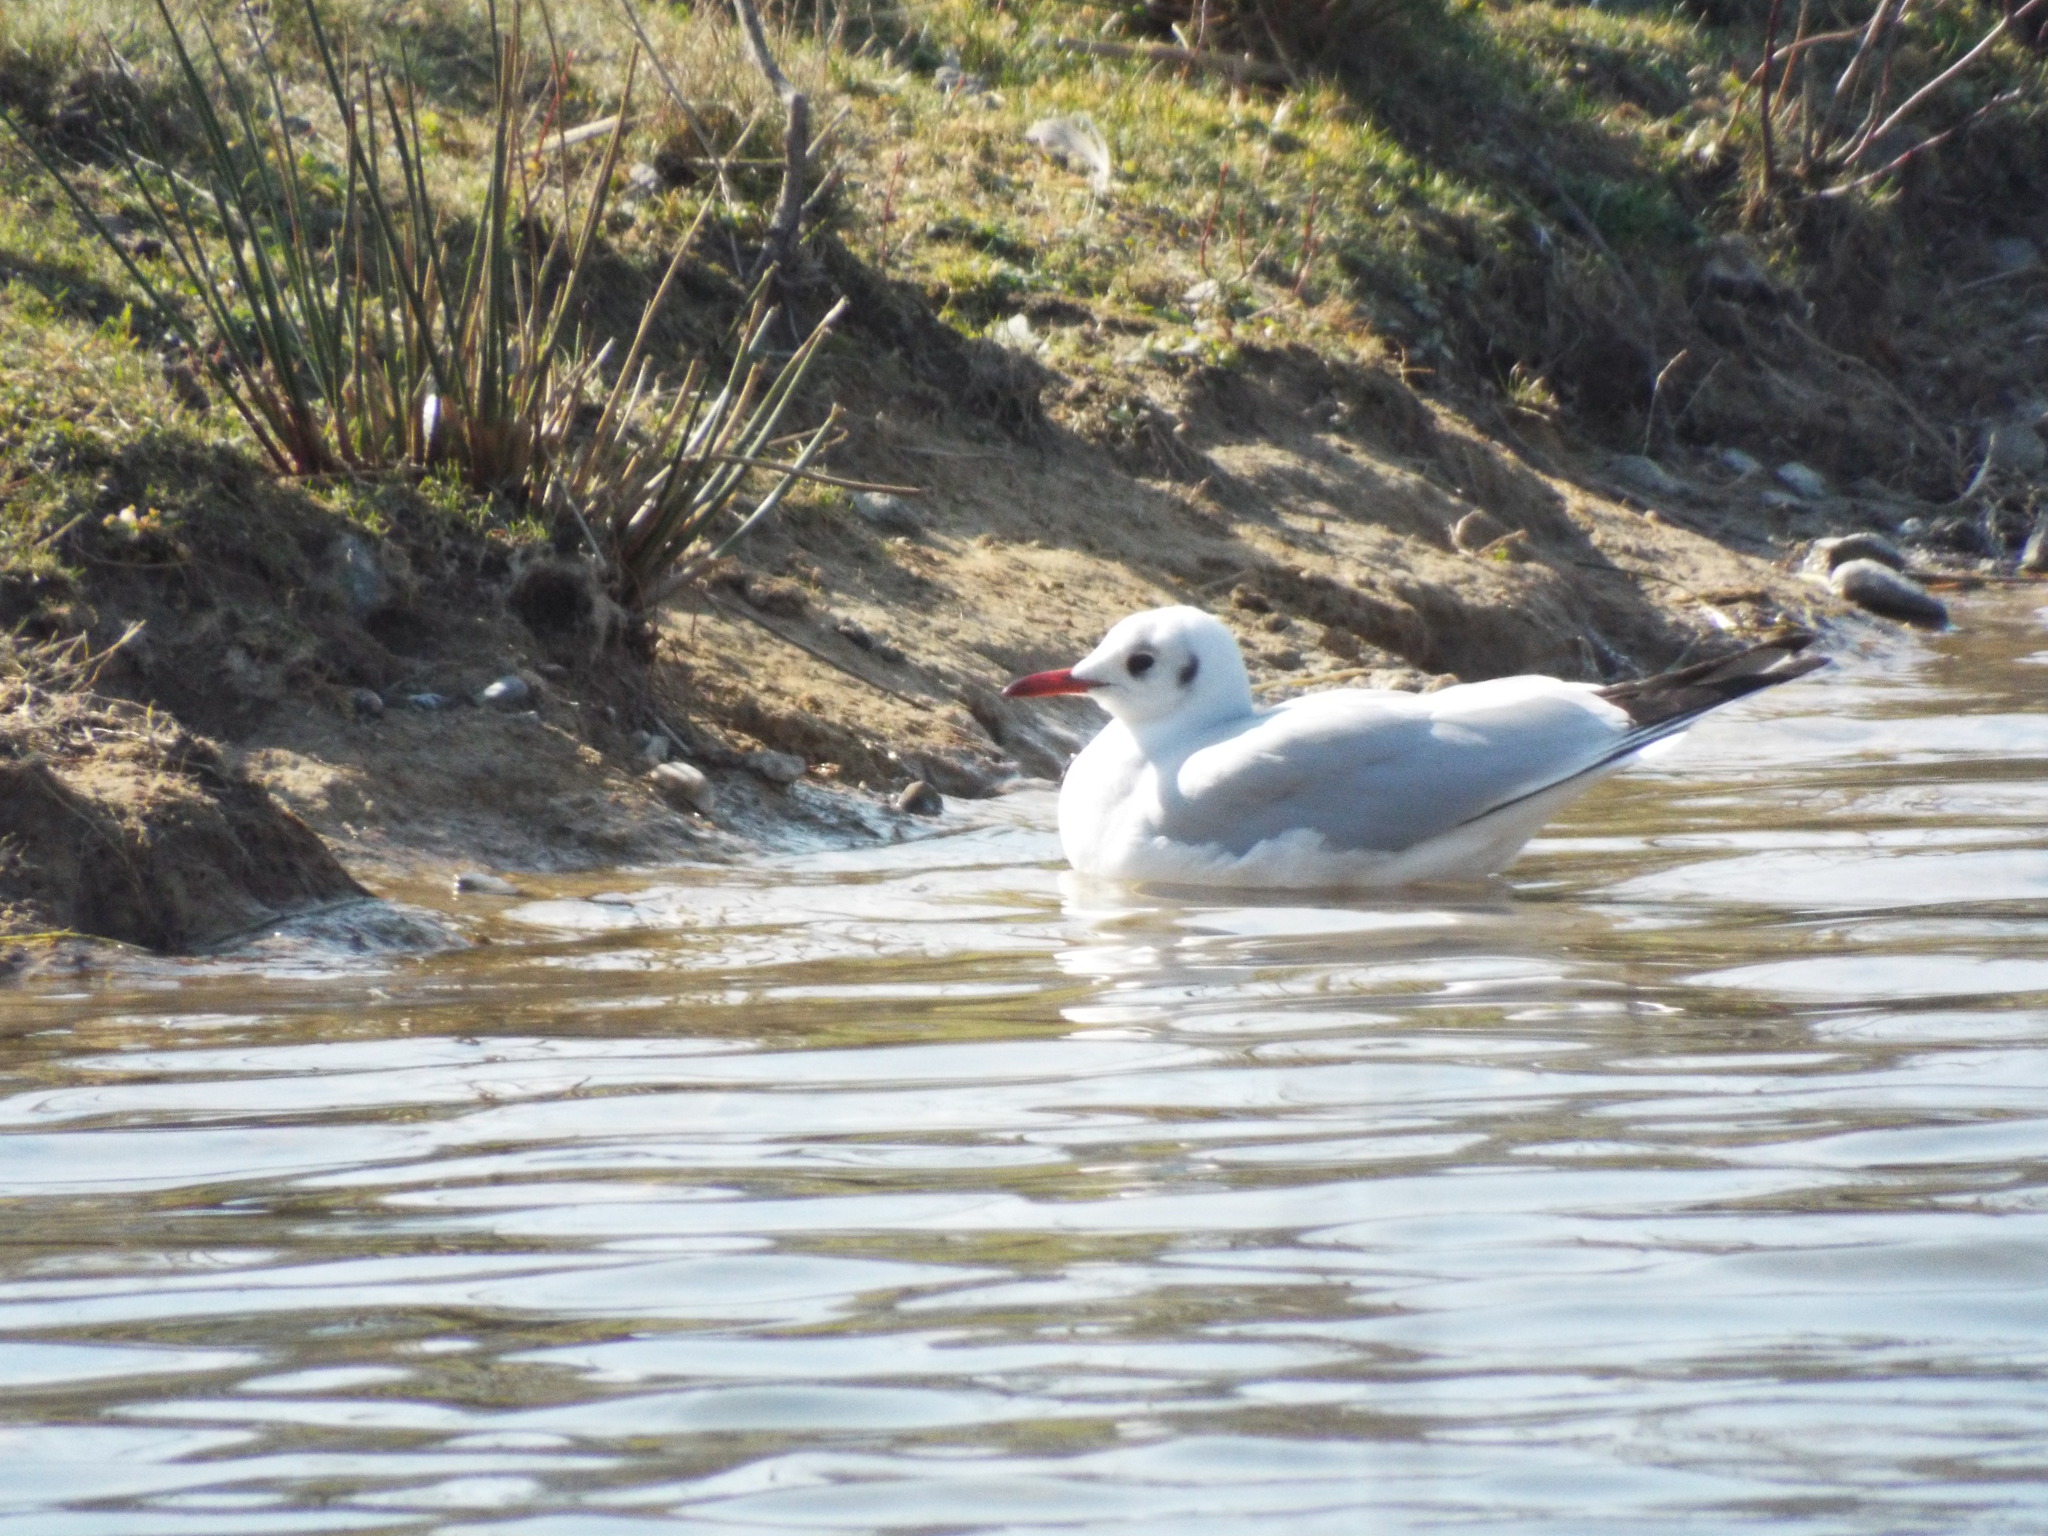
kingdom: Animalia
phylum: Chordata
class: Aves
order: Charadriiformes
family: Laridae
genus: Chroicocephalus
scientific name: Chroicocephalus ridibundus
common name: Black-headed gull
